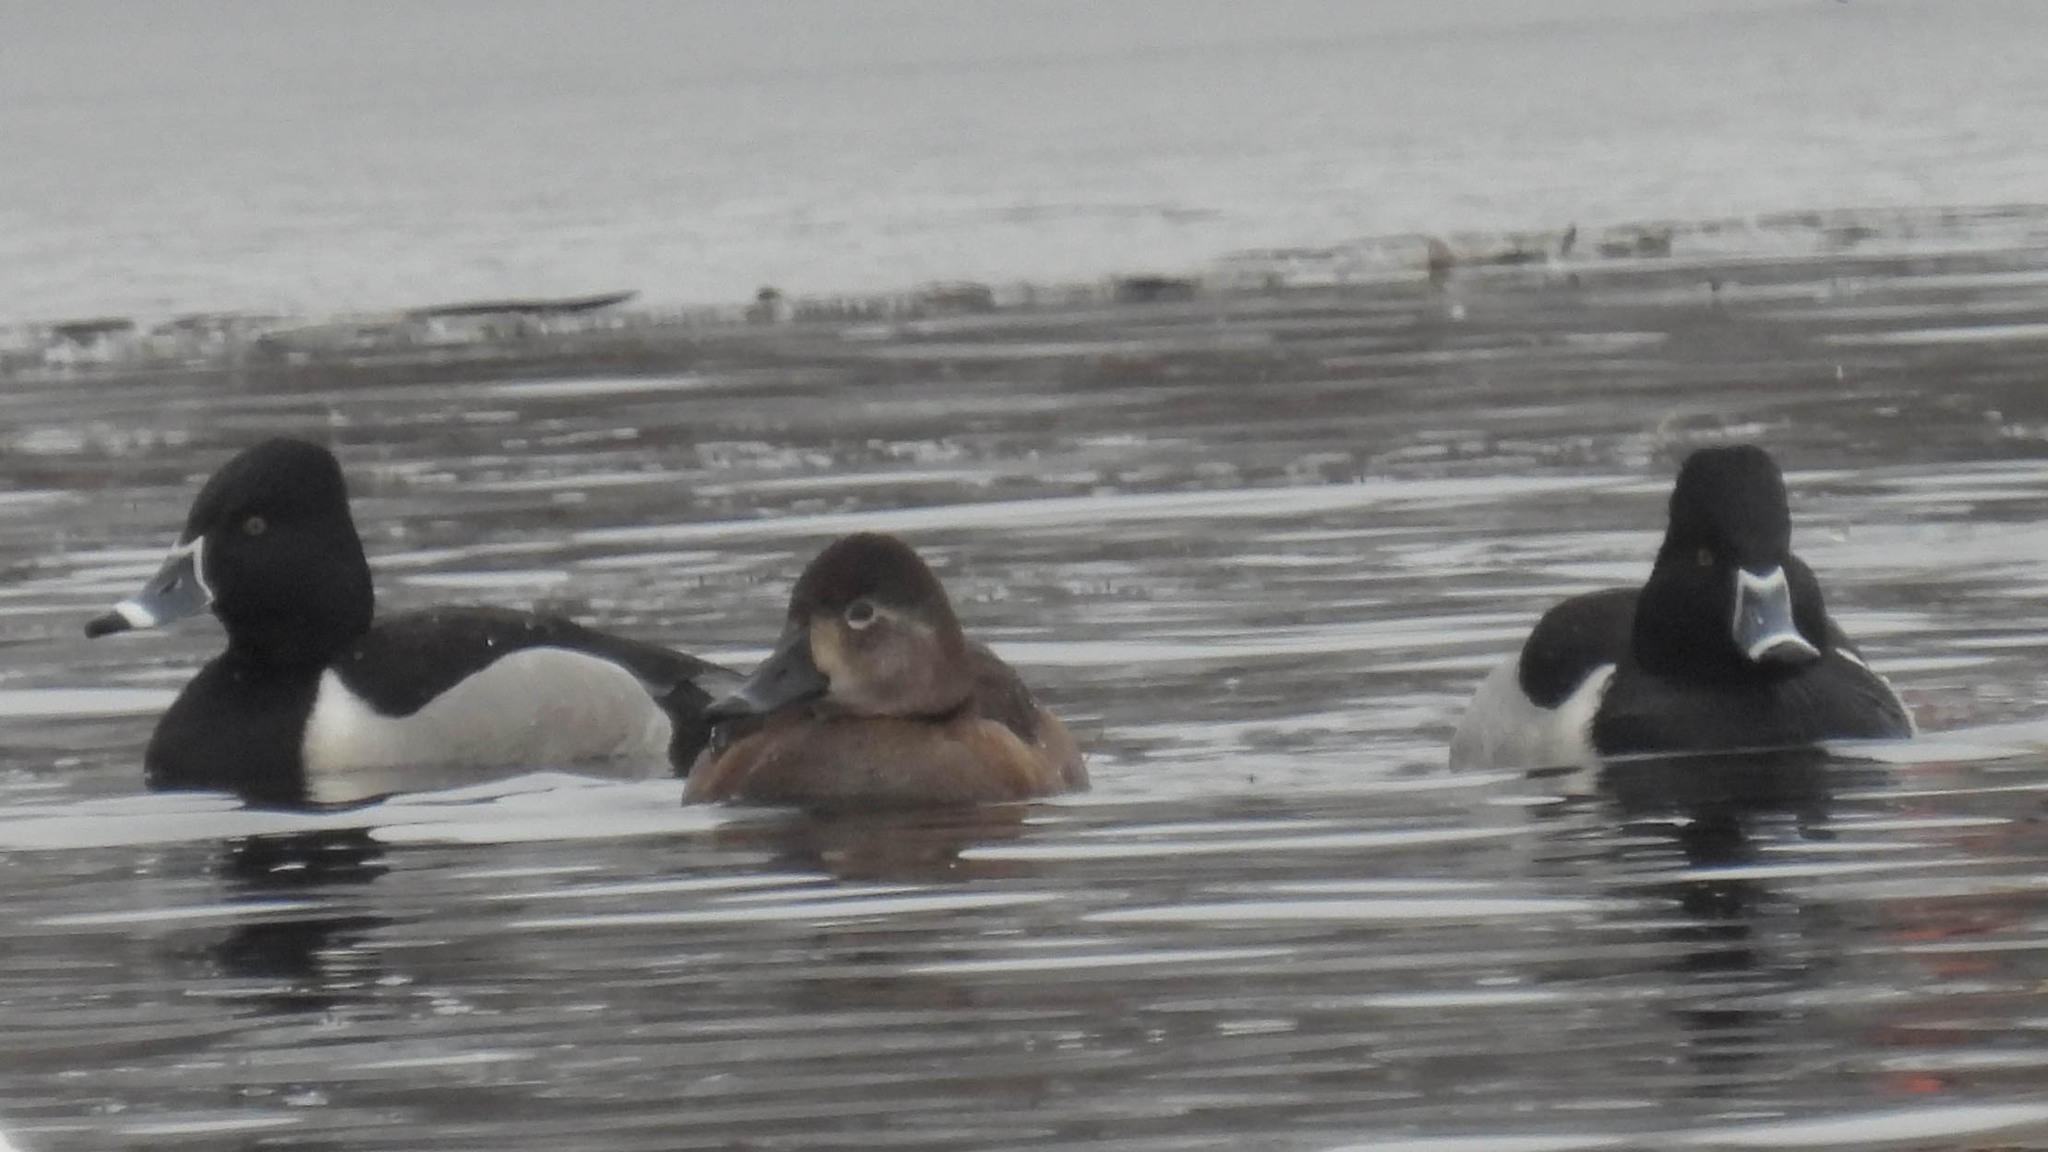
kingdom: Animalia
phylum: Chordata
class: Aves
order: Anseriformes
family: Anatidae
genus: Aythya
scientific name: Aythya collaris
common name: Ring-necked duck
